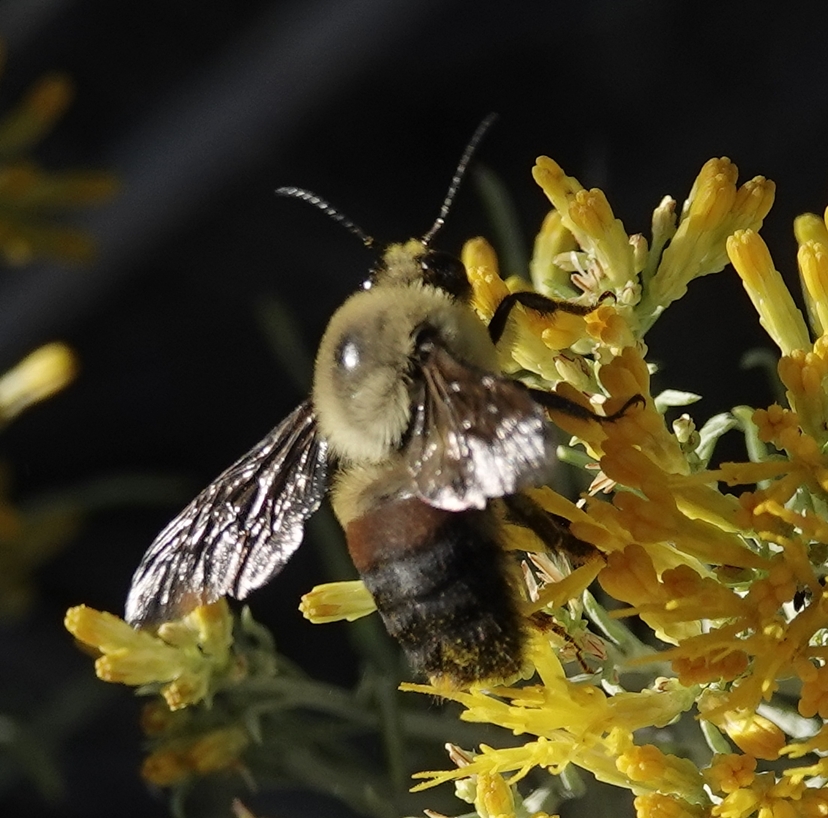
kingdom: Animalia
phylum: Arthropoda
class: Insecta
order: Hymenoptera
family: Apidae
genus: Bombus
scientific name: Bombus griseocollis
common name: Brown-belted bumble bee
